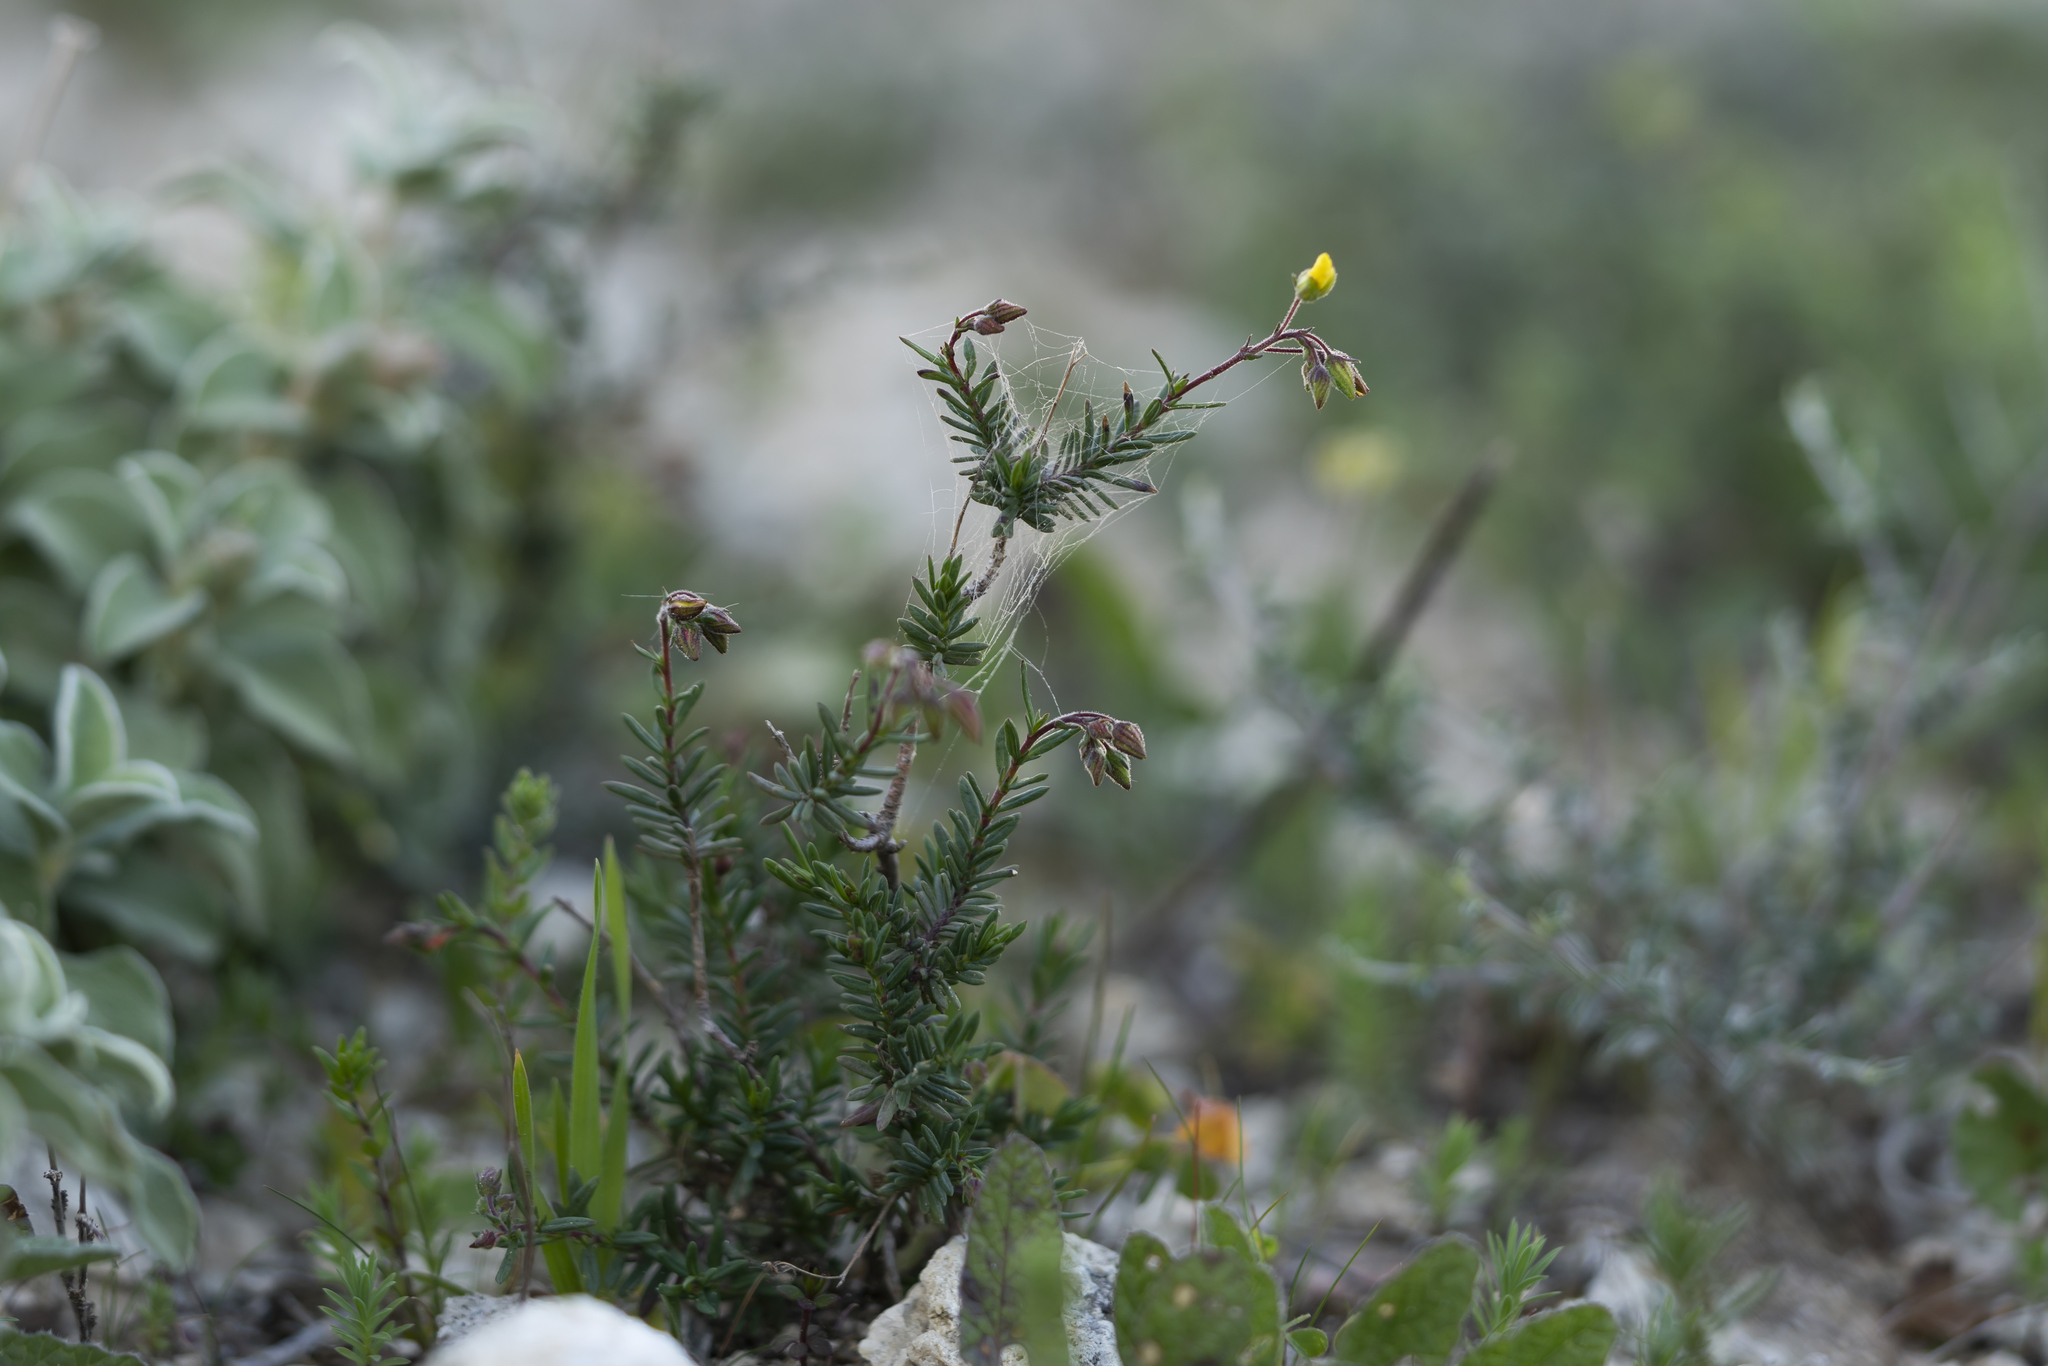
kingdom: Plantae
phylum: Tracheophyta
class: Magnoliopsida
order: Malvales
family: Cistaceae
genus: Fumana
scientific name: Fumana laevis
